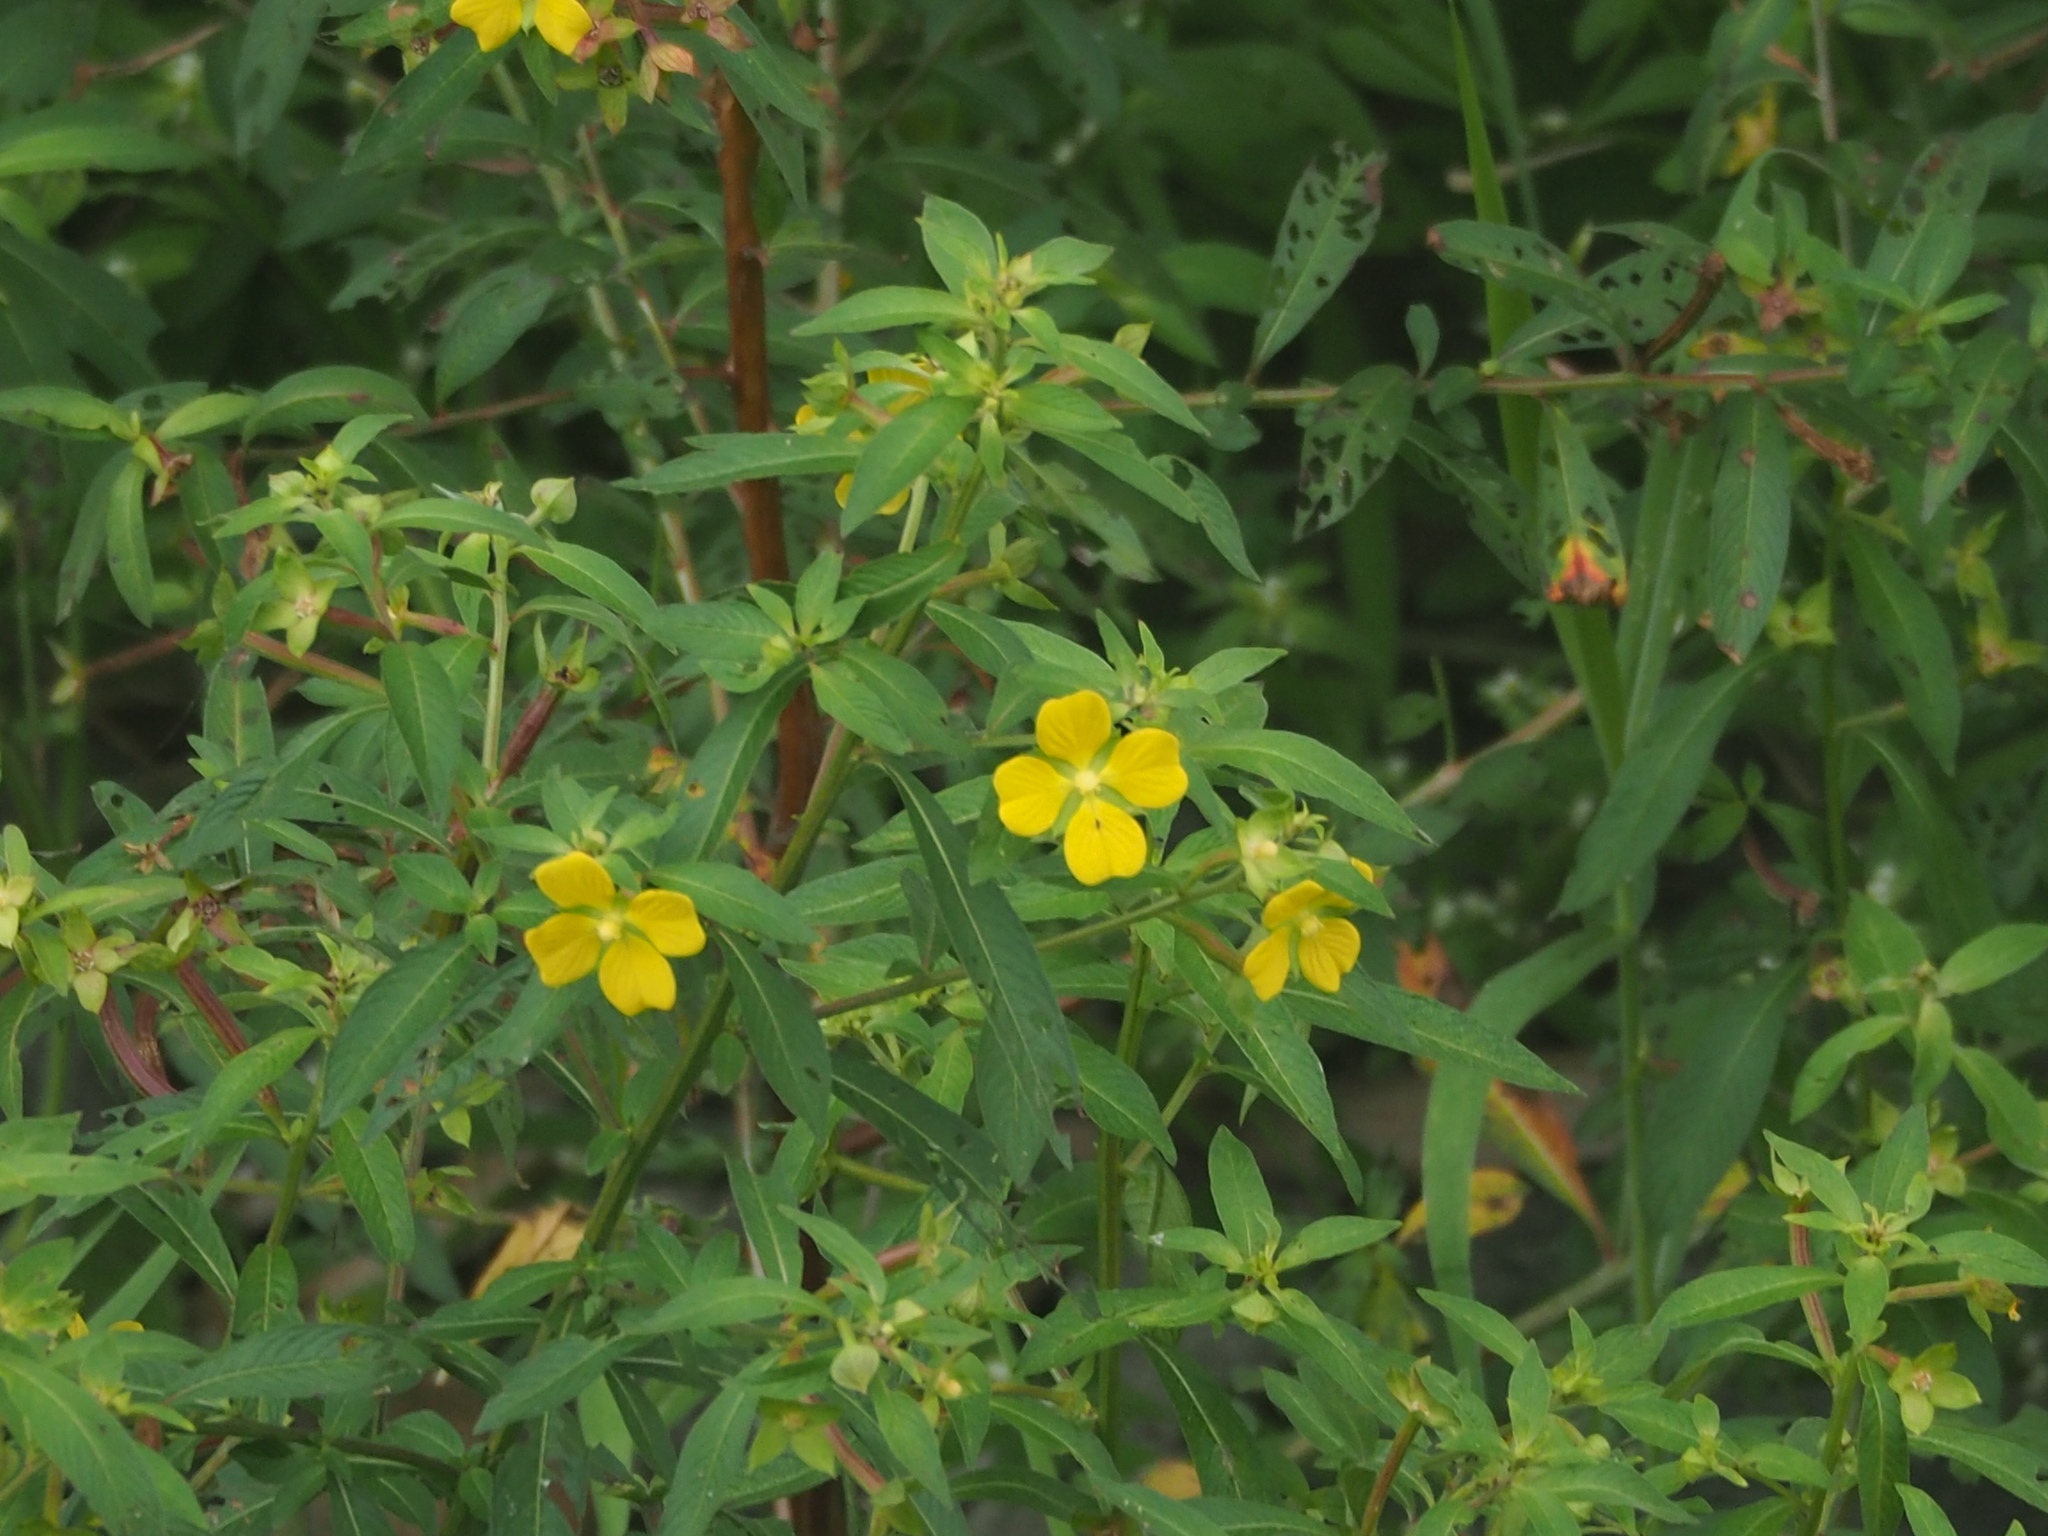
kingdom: Plantae
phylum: Tracheophyta
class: Magnoliopsida
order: Myrtales
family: Onagraceae
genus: Ludwigia
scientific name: Ludwigia octovalvis
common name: Water-primrose
